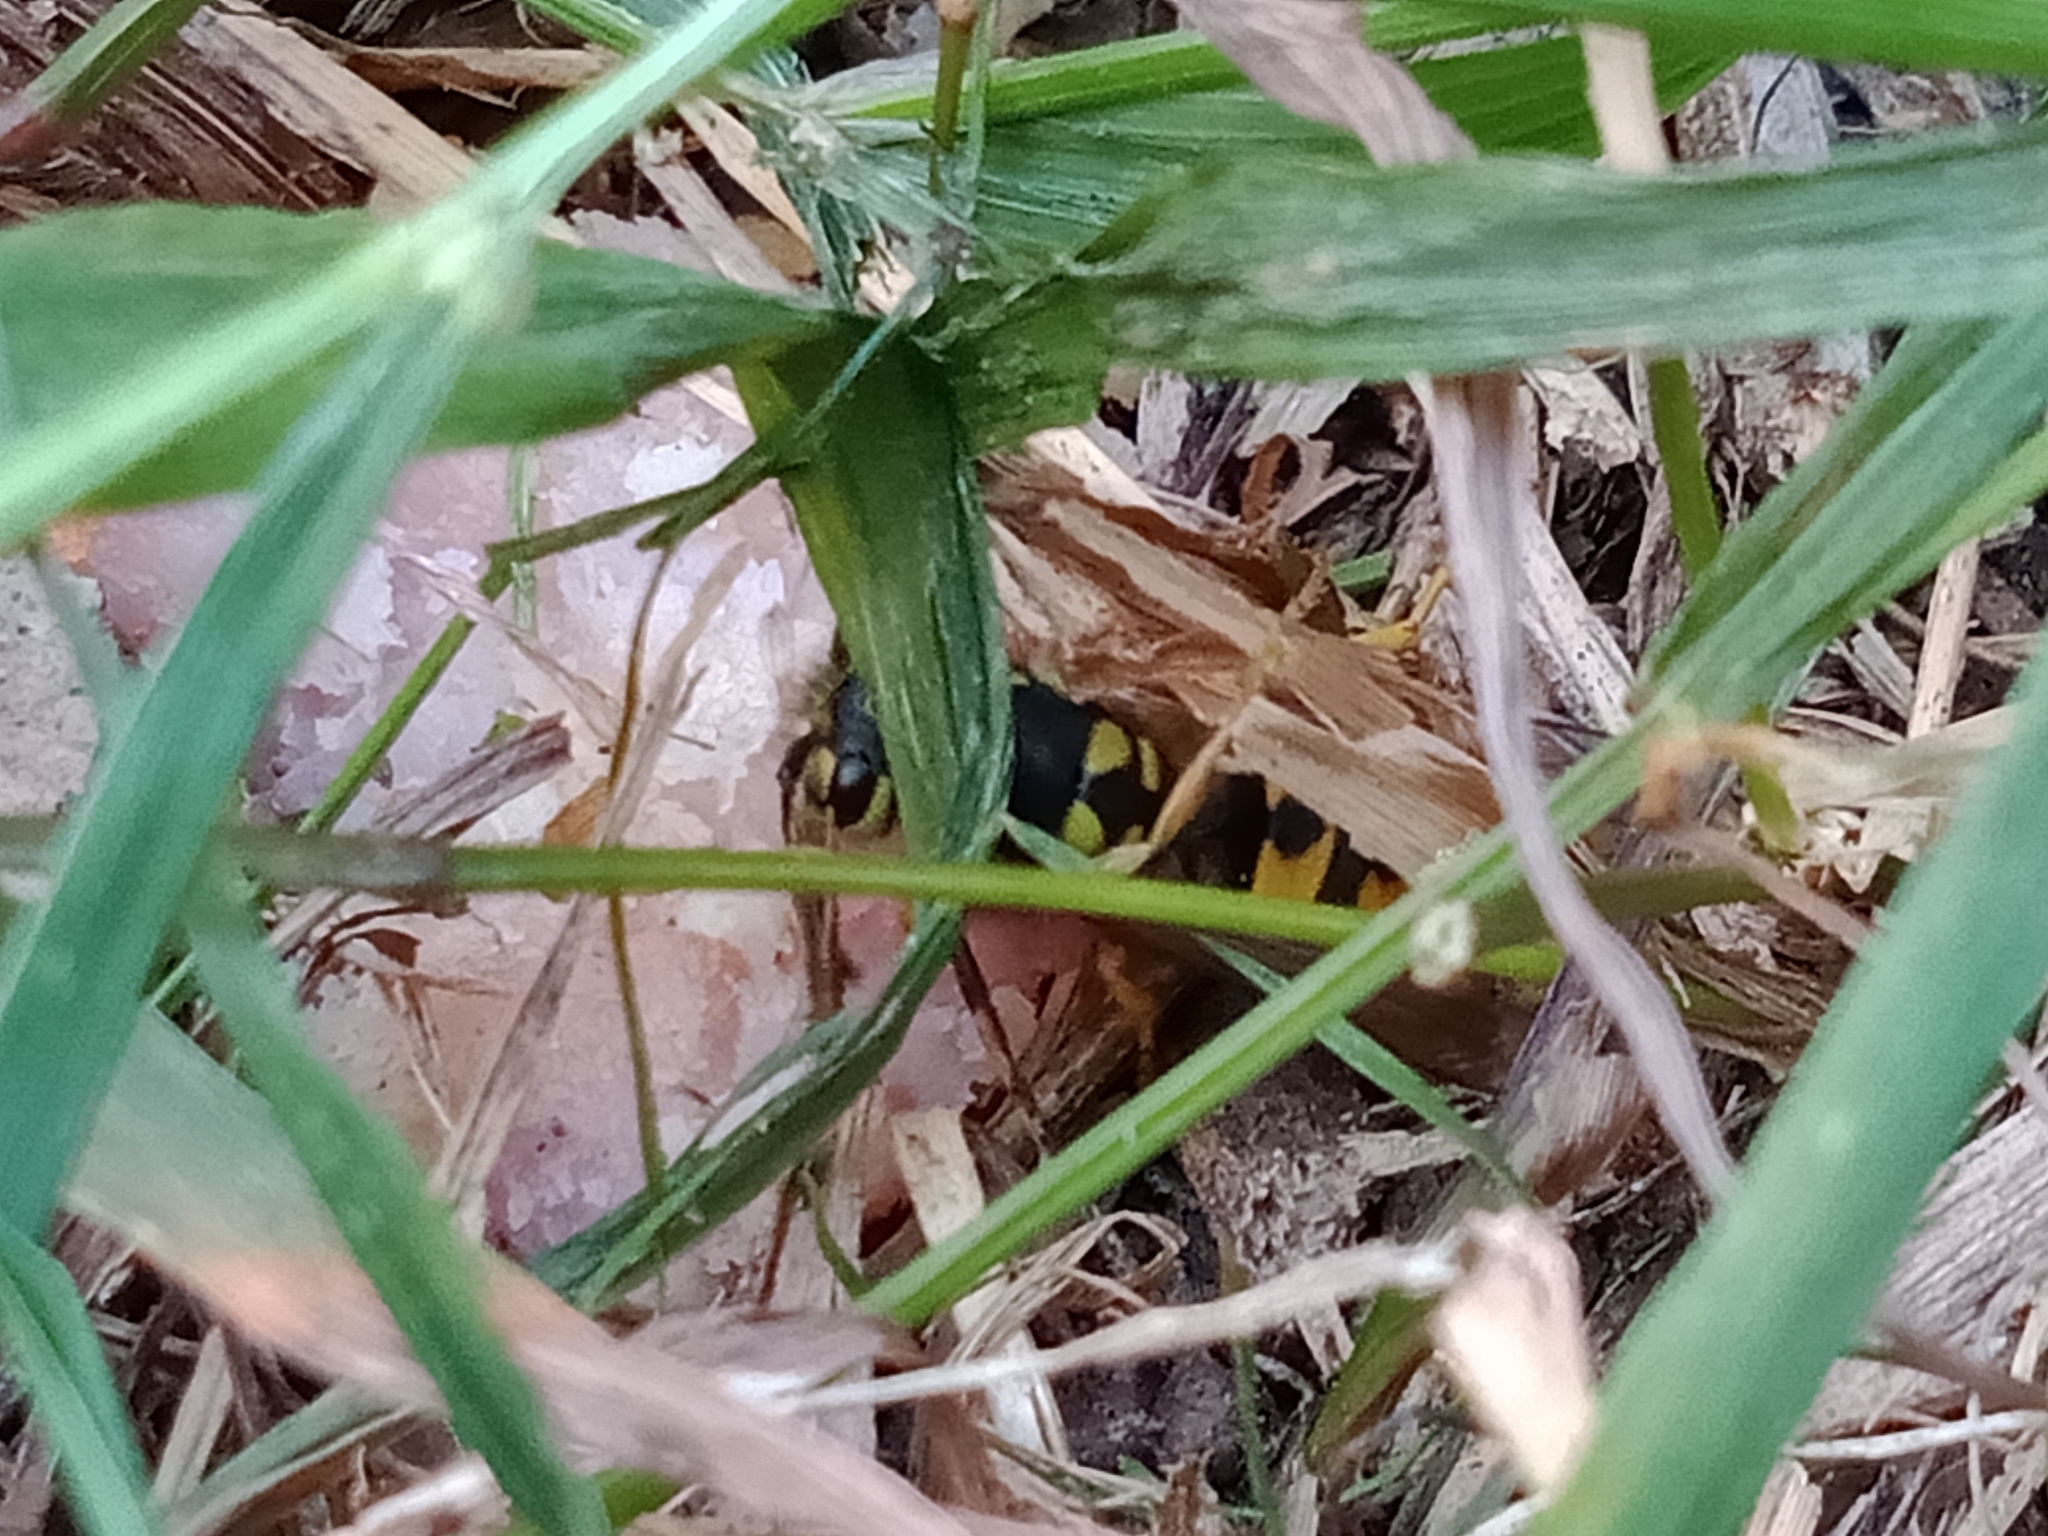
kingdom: Animalia
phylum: Arthropoda
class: Insecta
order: Hymenoptera
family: Vespidae
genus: Vespula
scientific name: Vespula germanica
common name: German wasp
